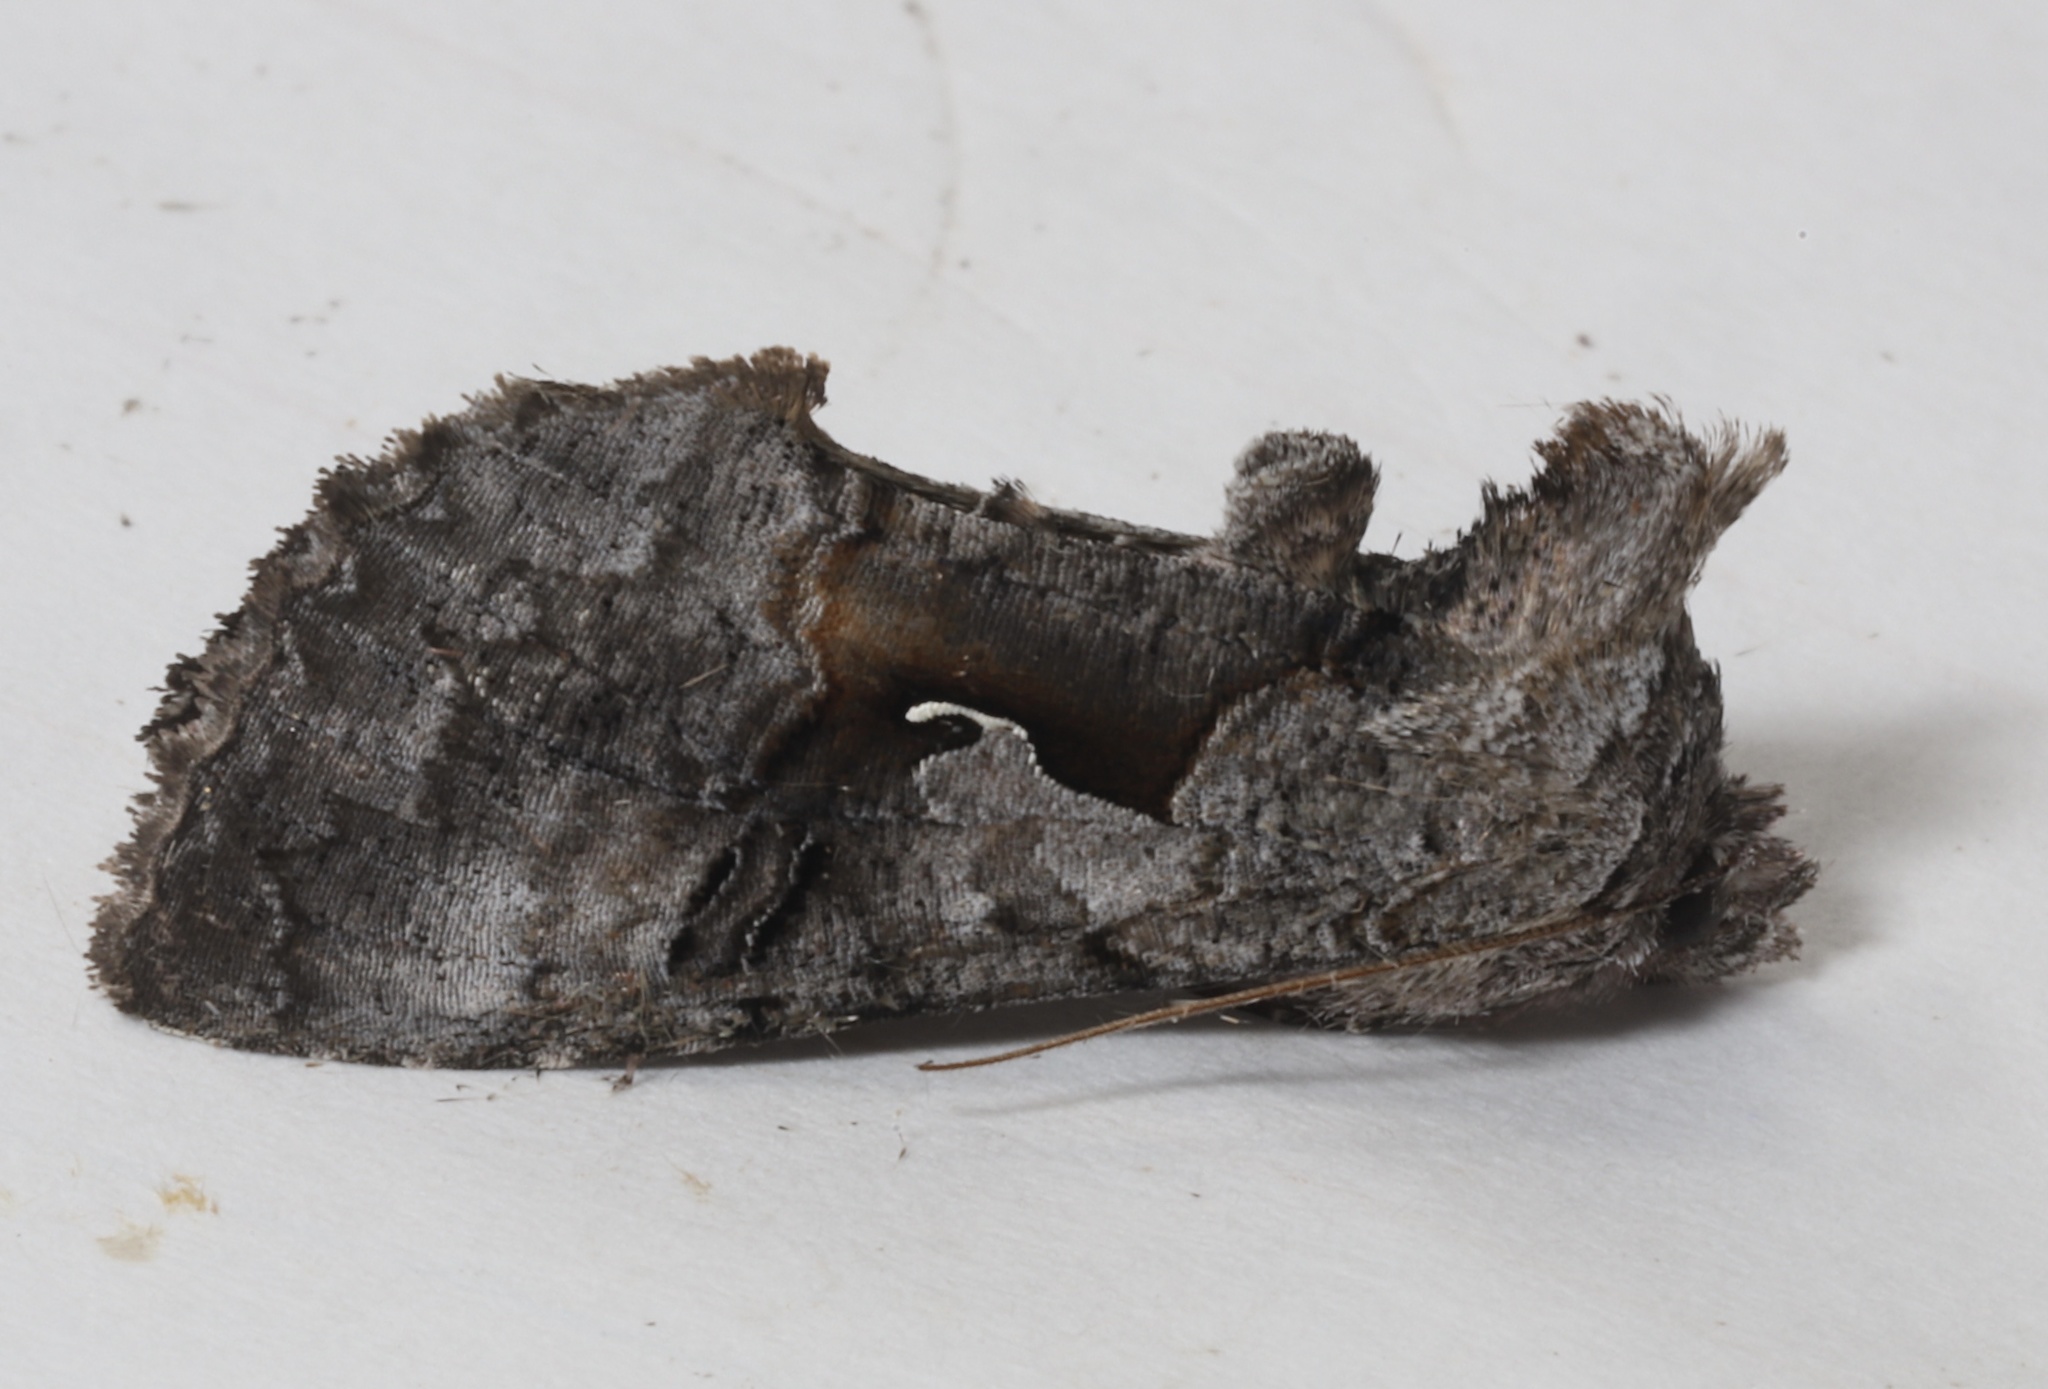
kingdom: Animalia
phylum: Arthropoda
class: Insecta
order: Lepidoptera
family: Noctuidae
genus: Syngrapha
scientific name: Syngrapha epigaea
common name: Epigaea looper moth
